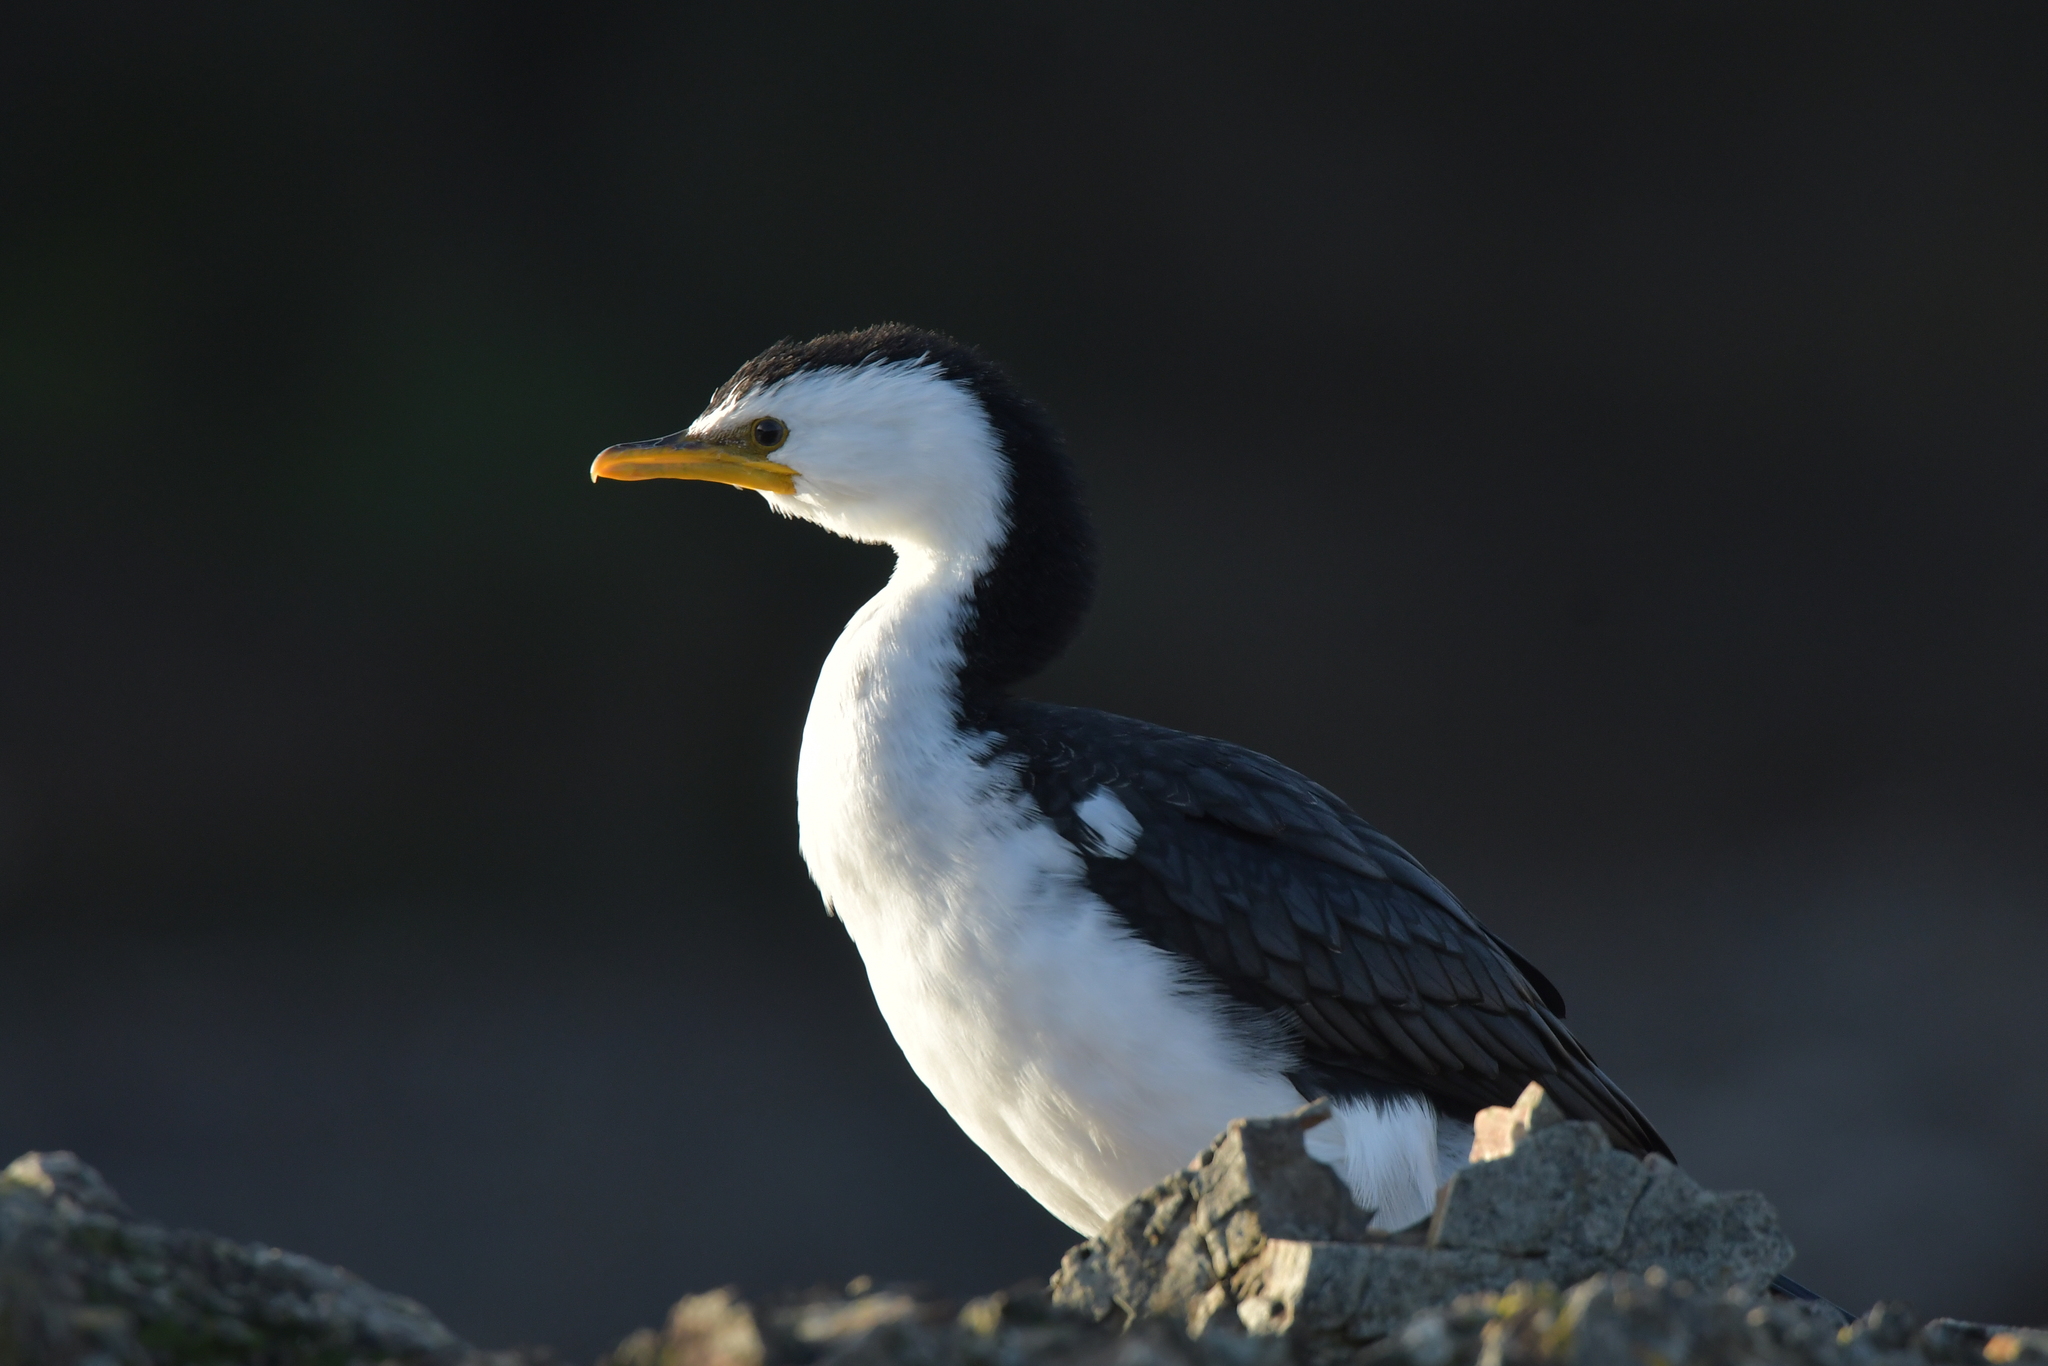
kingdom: Animalia
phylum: Chordata
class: Aves
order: Suliformes
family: Phalacrocoracidae
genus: Microcarbo
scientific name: Microcarbo melanoleucos
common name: Little pied cormorant
